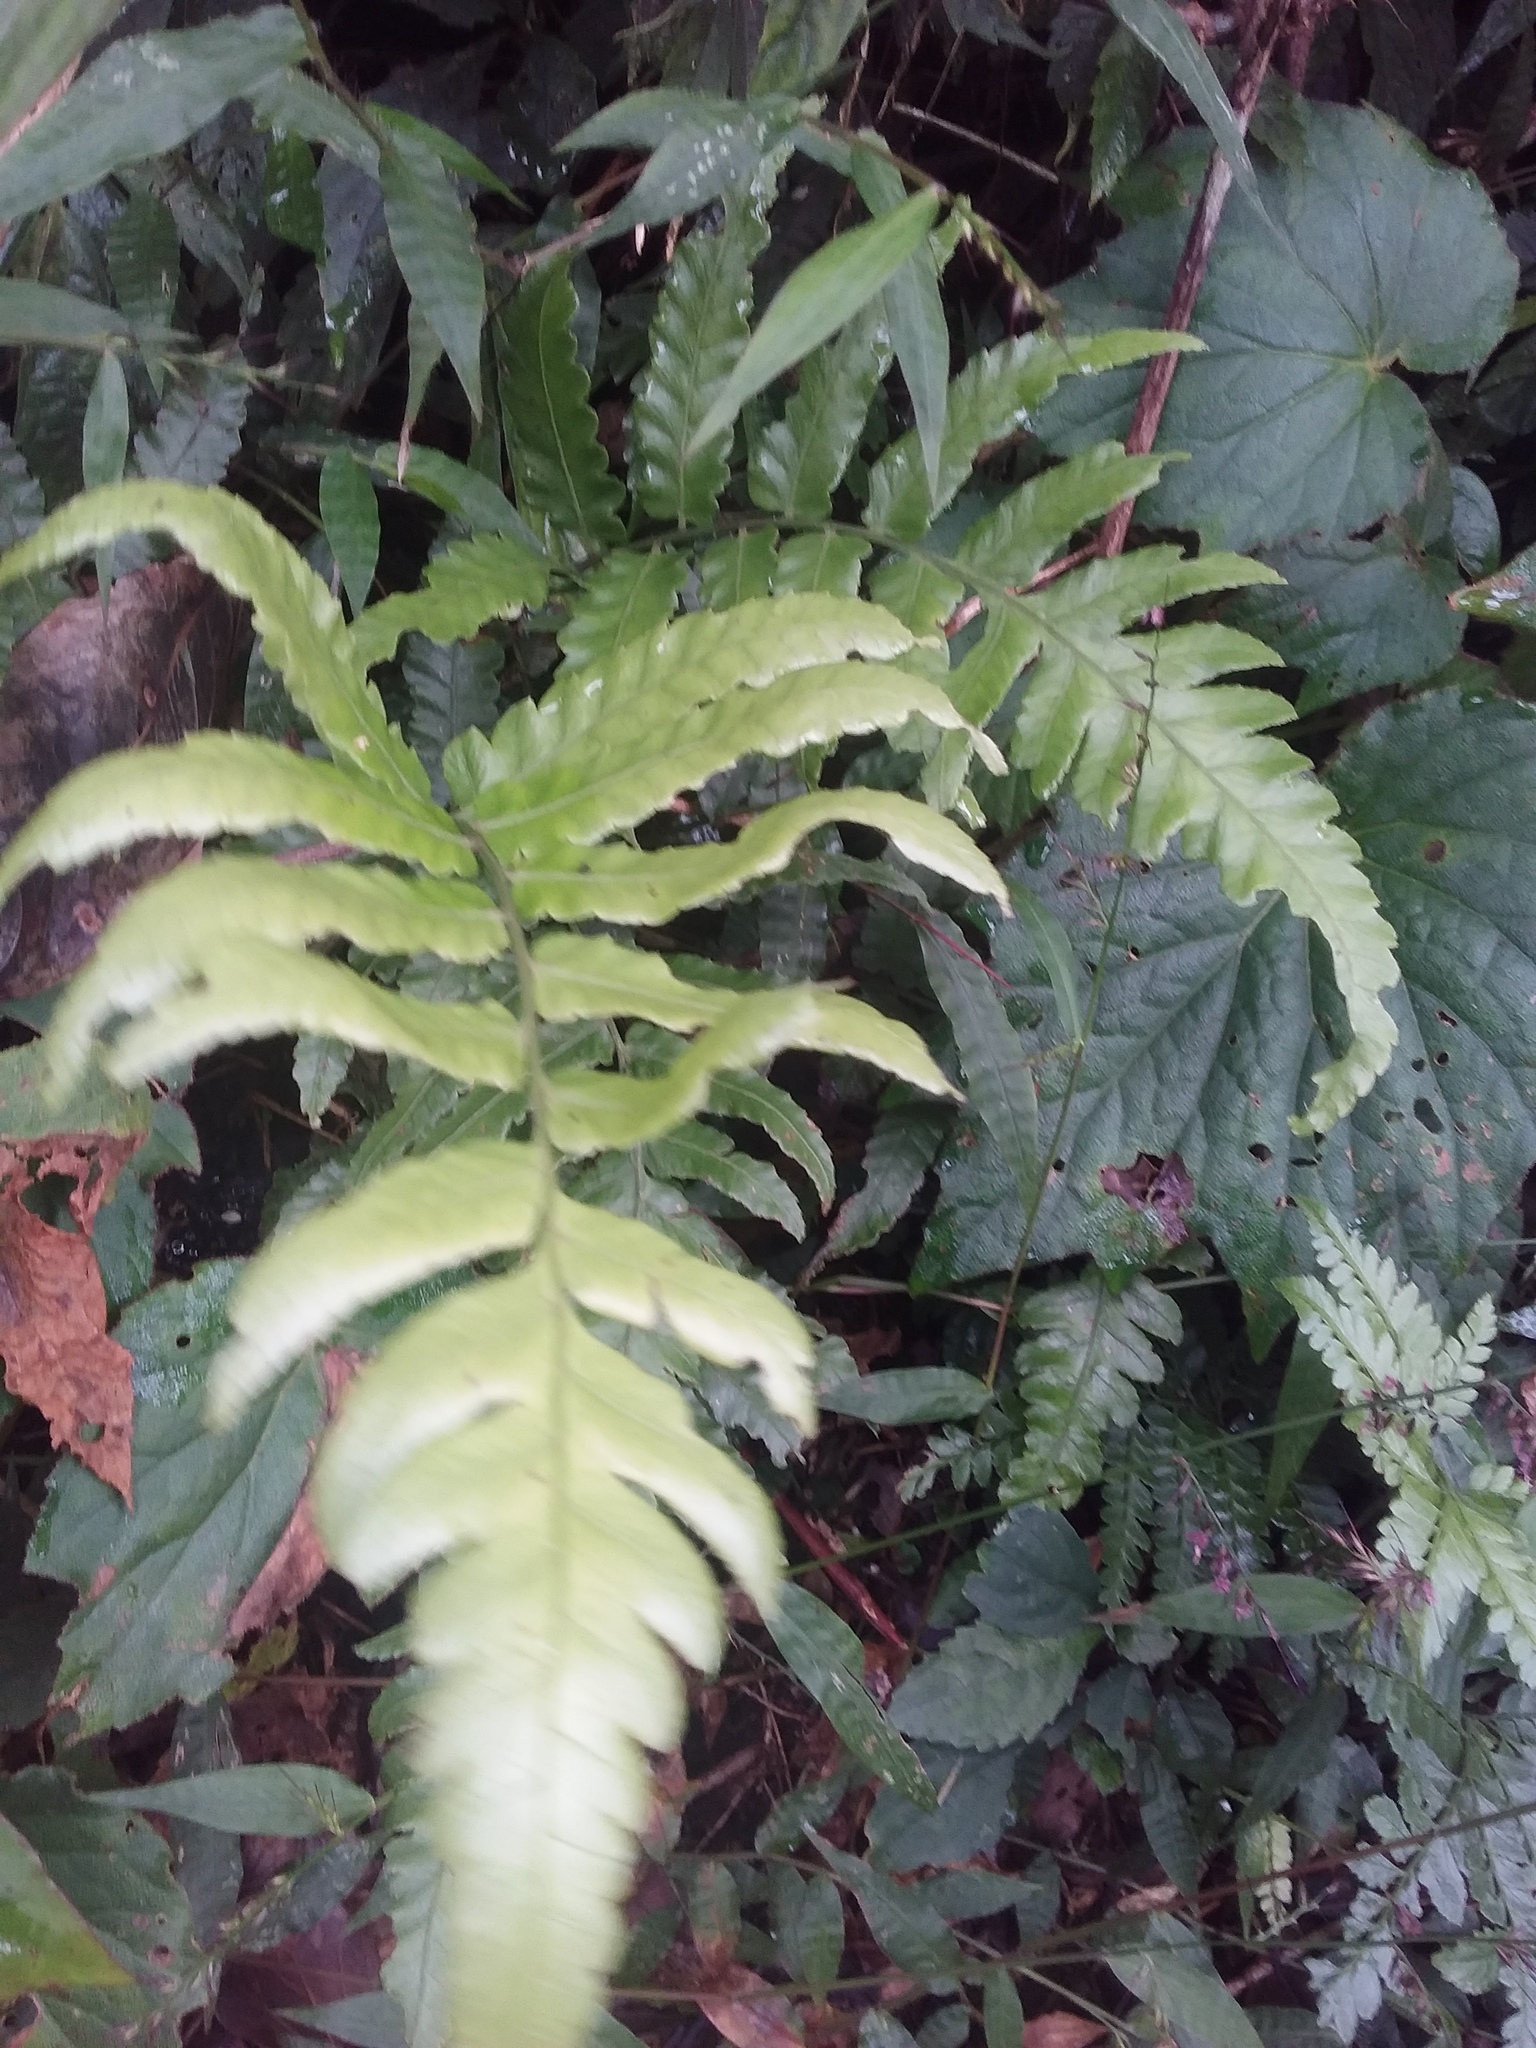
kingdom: Plantae
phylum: Tracheophyta
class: Polypodiopsida
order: Polypodiales
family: Athyriaceae
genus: Diplazium
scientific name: Diplazium dilatatum
